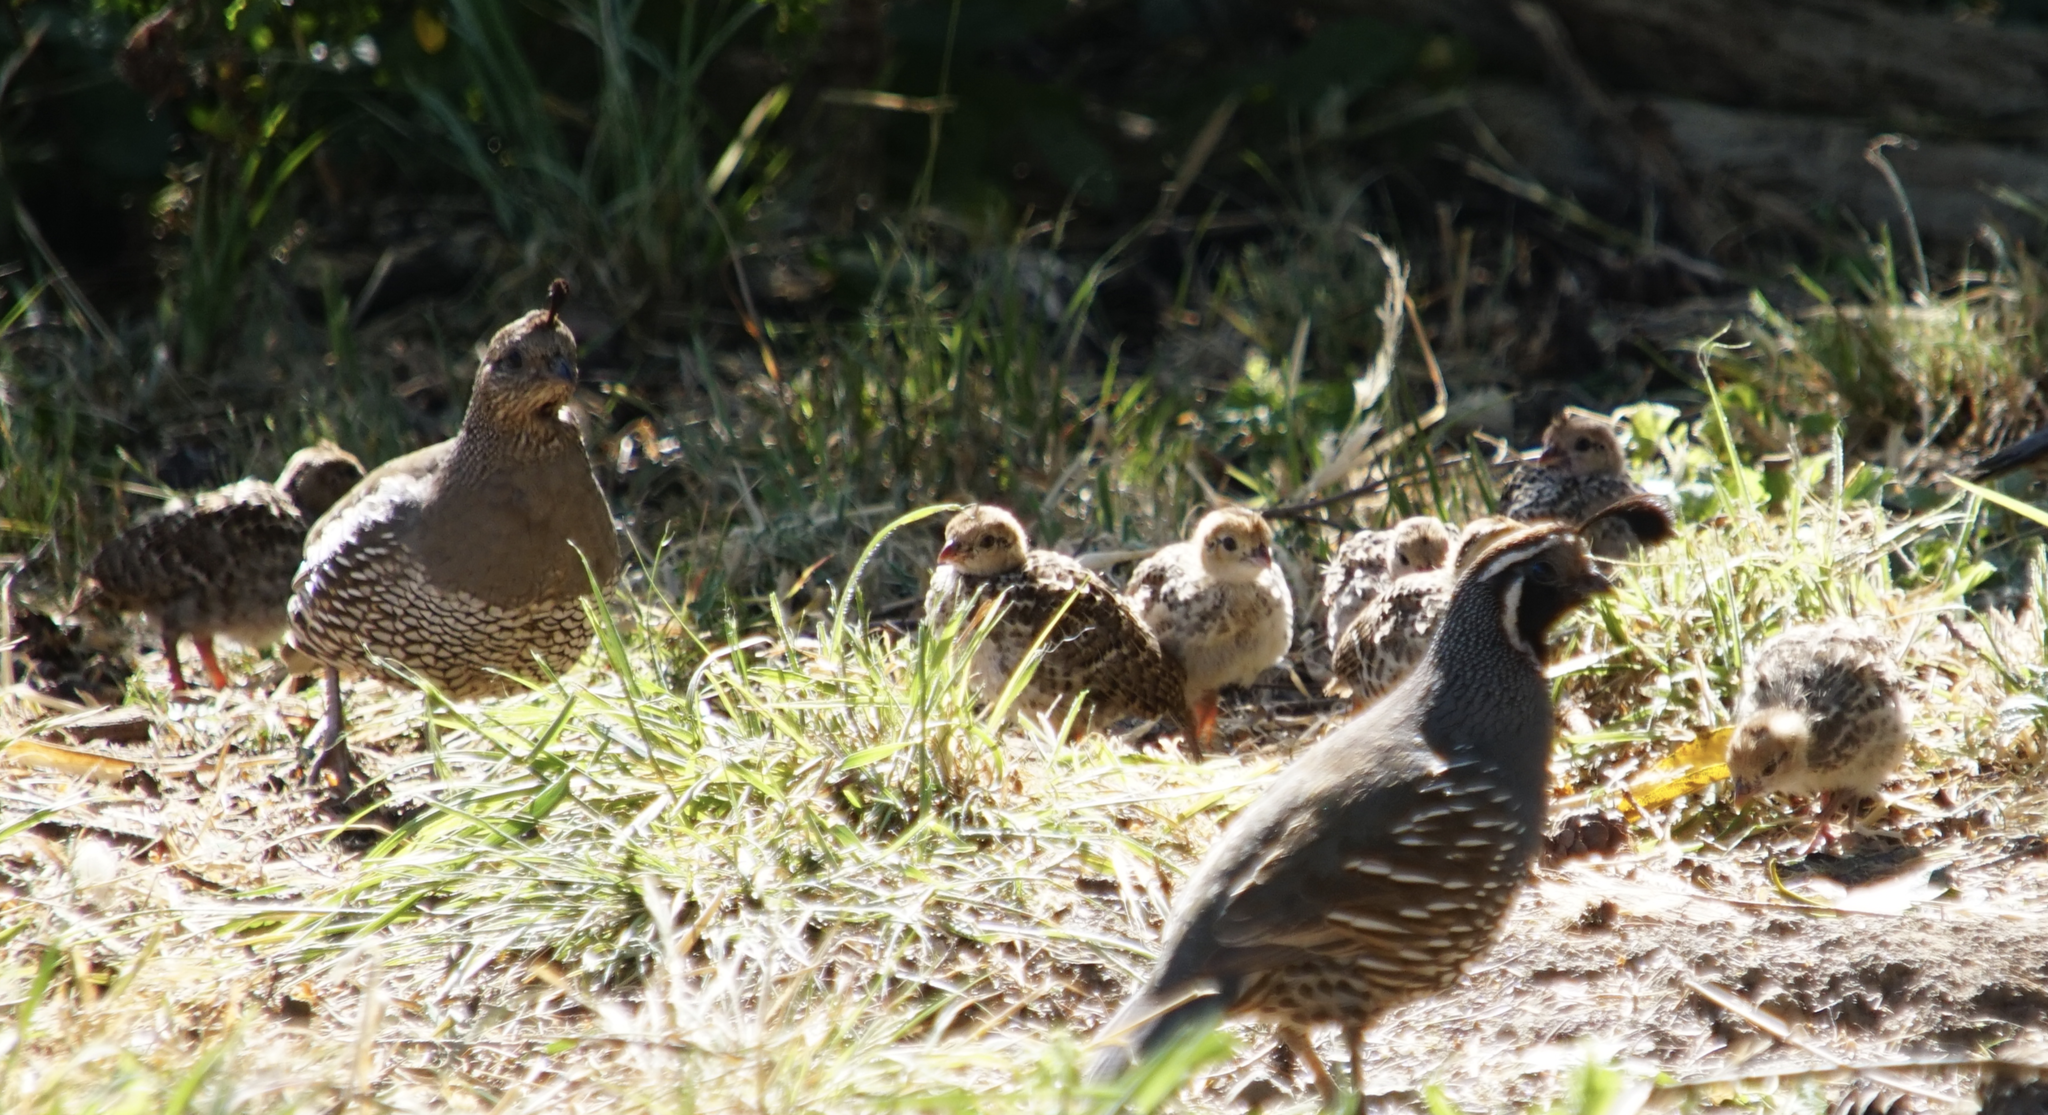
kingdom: Animalia
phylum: Chordata
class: Aves
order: Galliformes
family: Odontophoridae
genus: Callipepla
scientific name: Callipepla californica
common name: California quail
